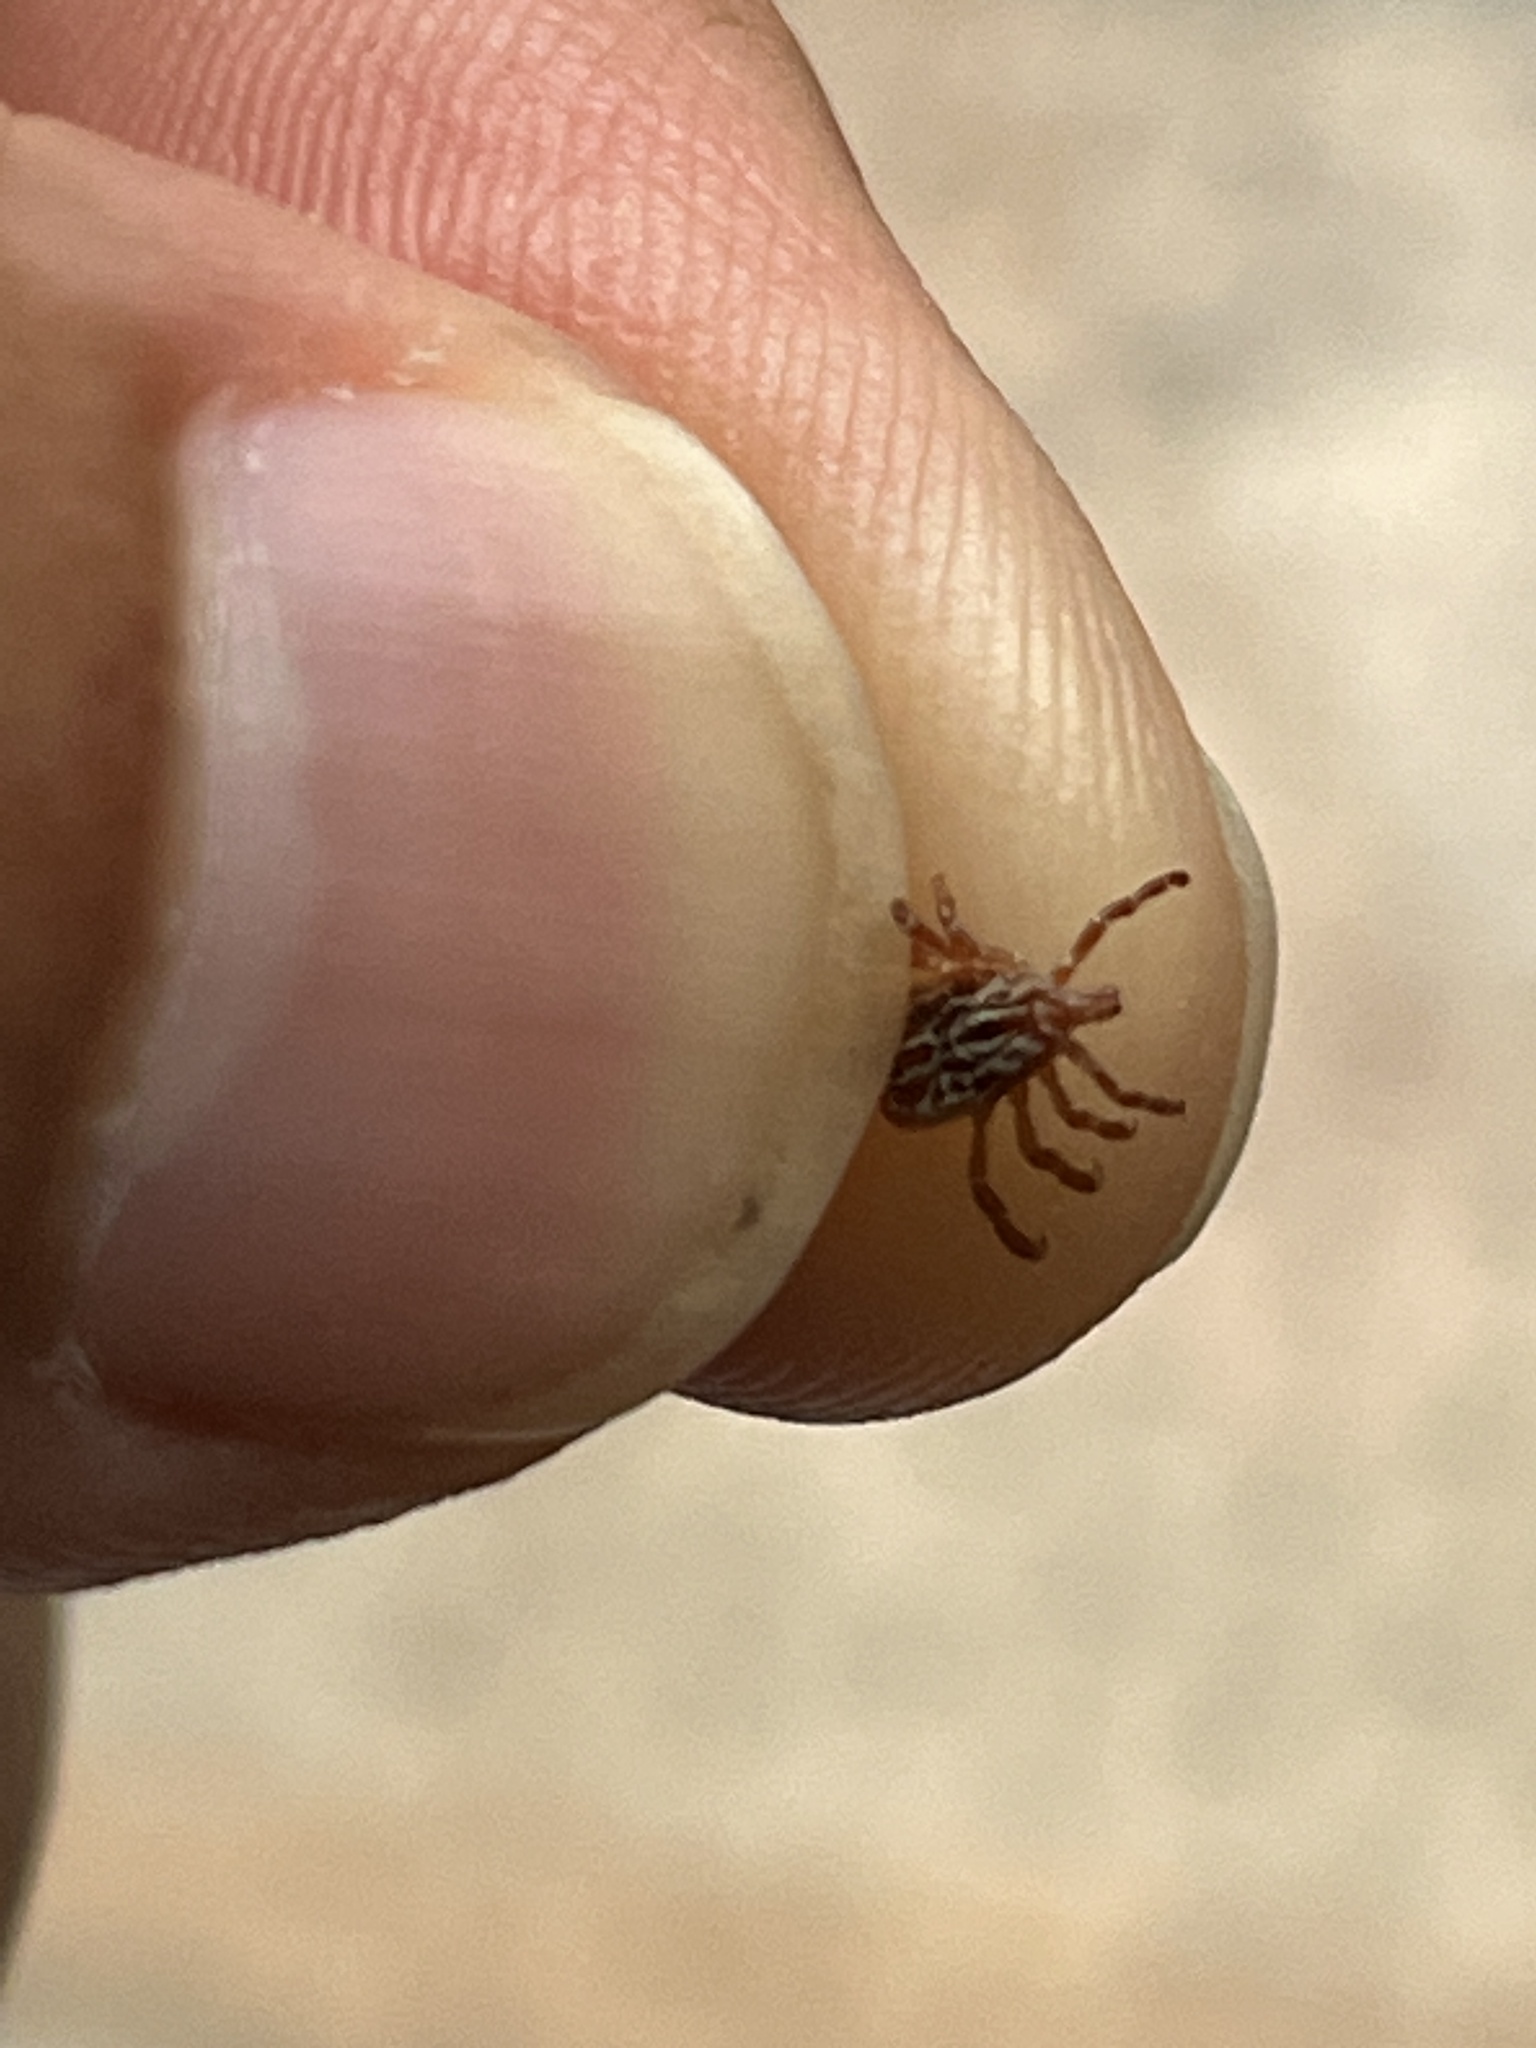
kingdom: Animalia
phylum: Arthropoda
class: Arachnida
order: Ixodida
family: Ixodidae
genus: Amblyomma
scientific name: Amblyomma maculatum
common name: Gulf coast tick
